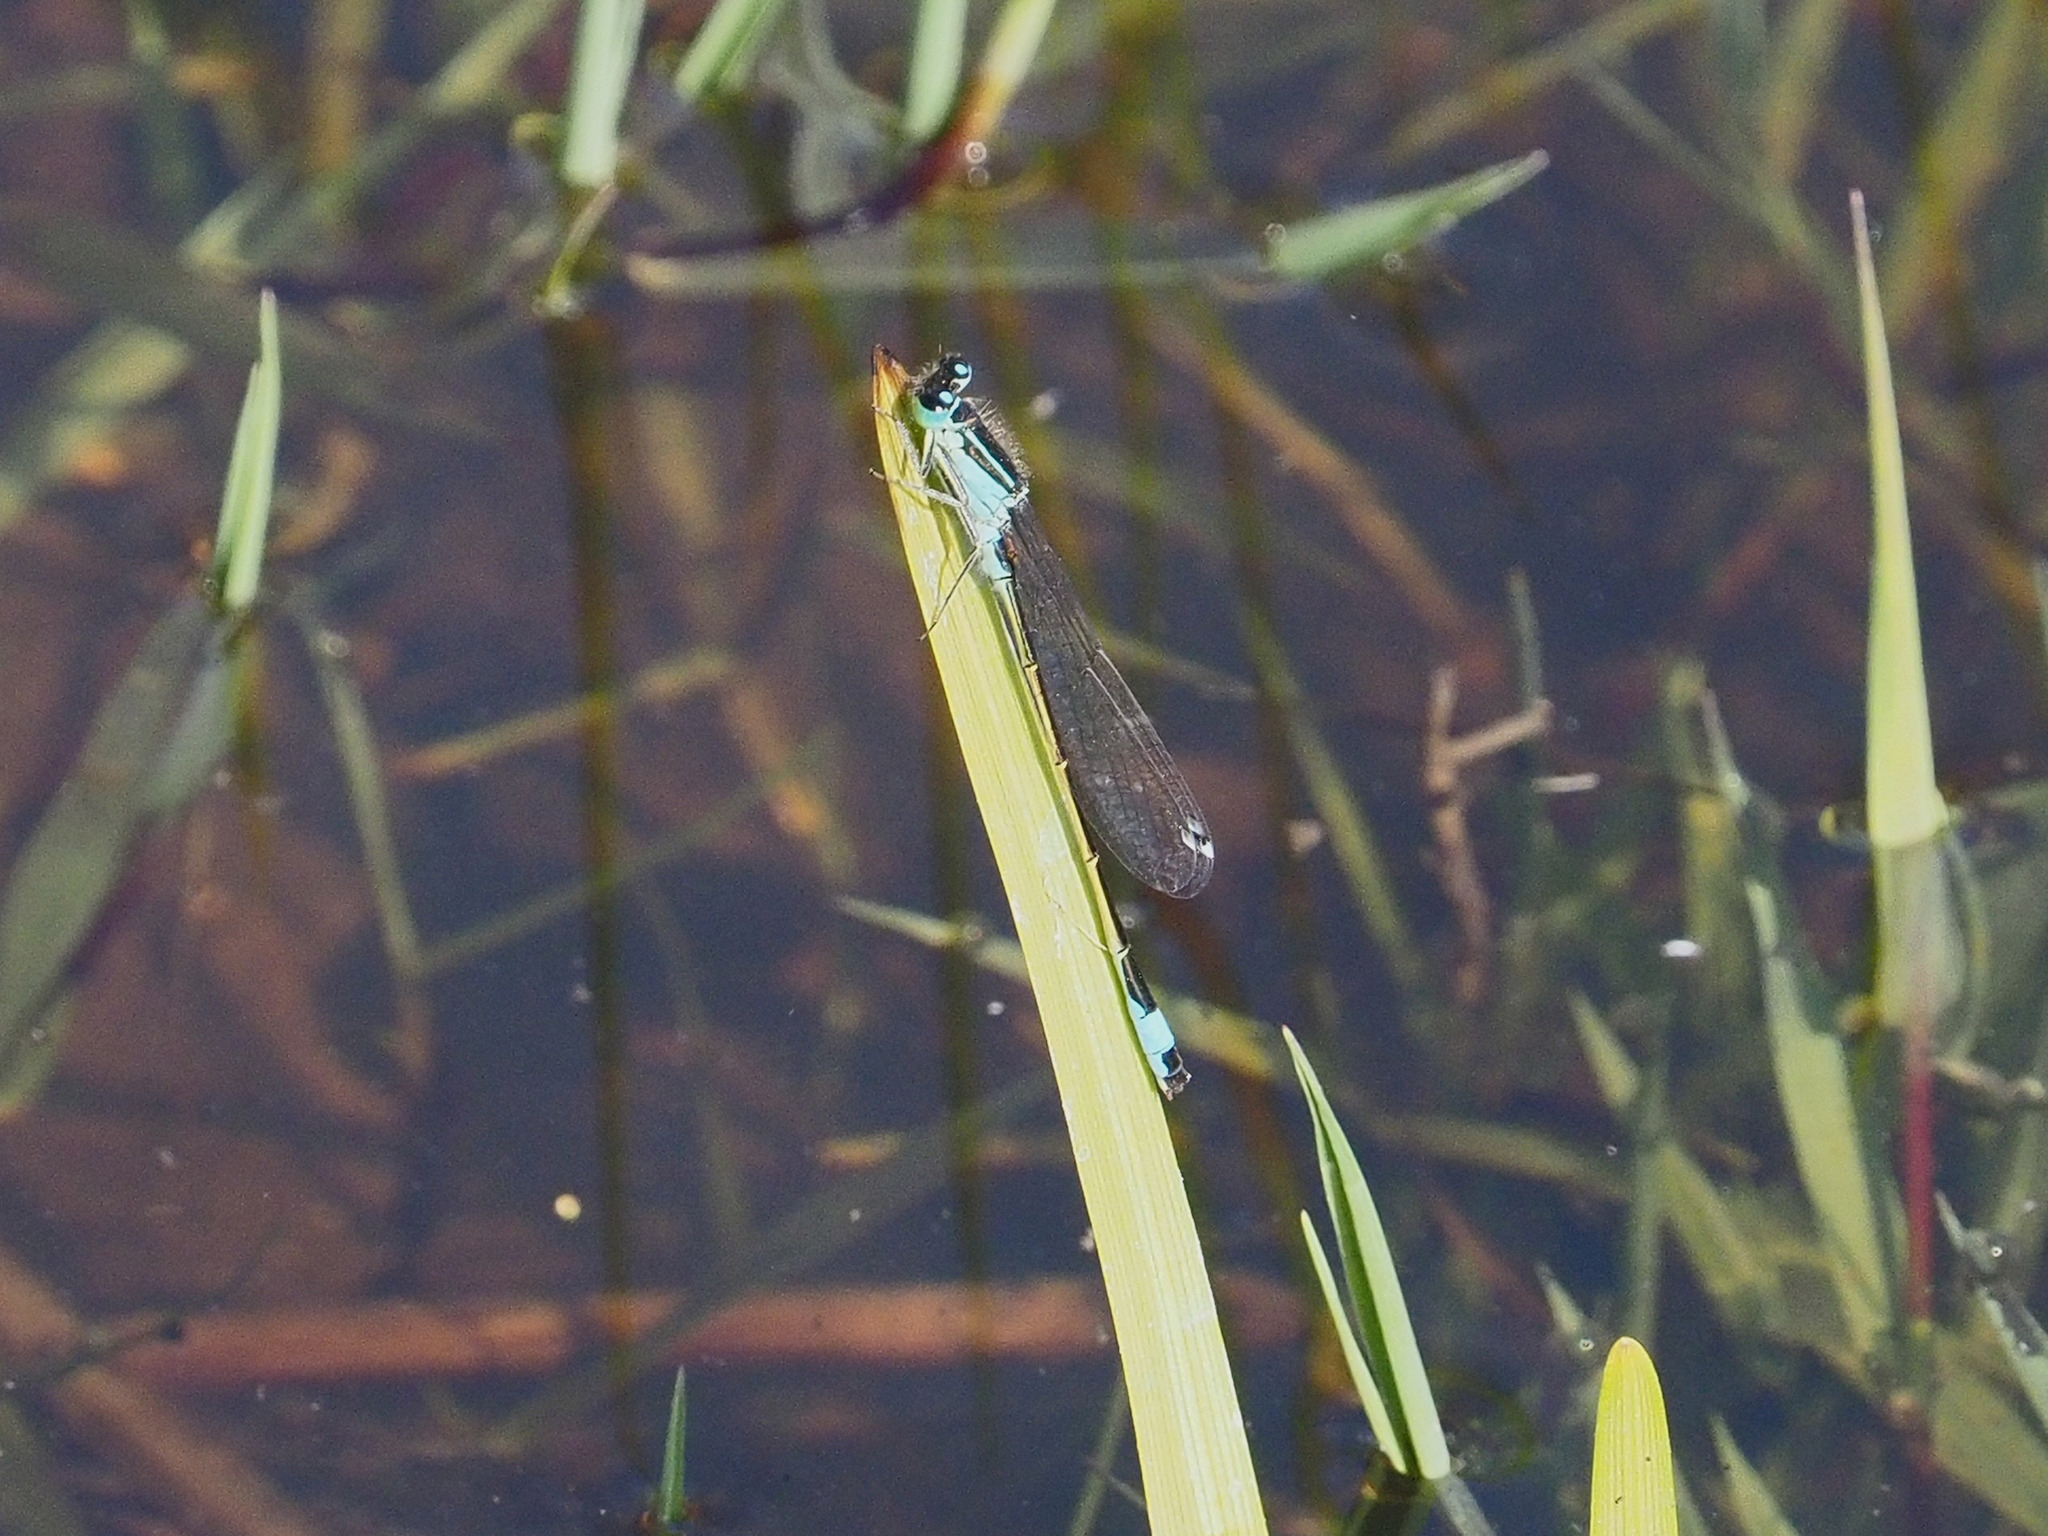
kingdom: Animalia
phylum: Arthropoda
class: Insecta
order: Odonata
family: Coenagrionidae
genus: Ischnura
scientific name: Ischnura elegans
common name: Blue-tailed damselfly
